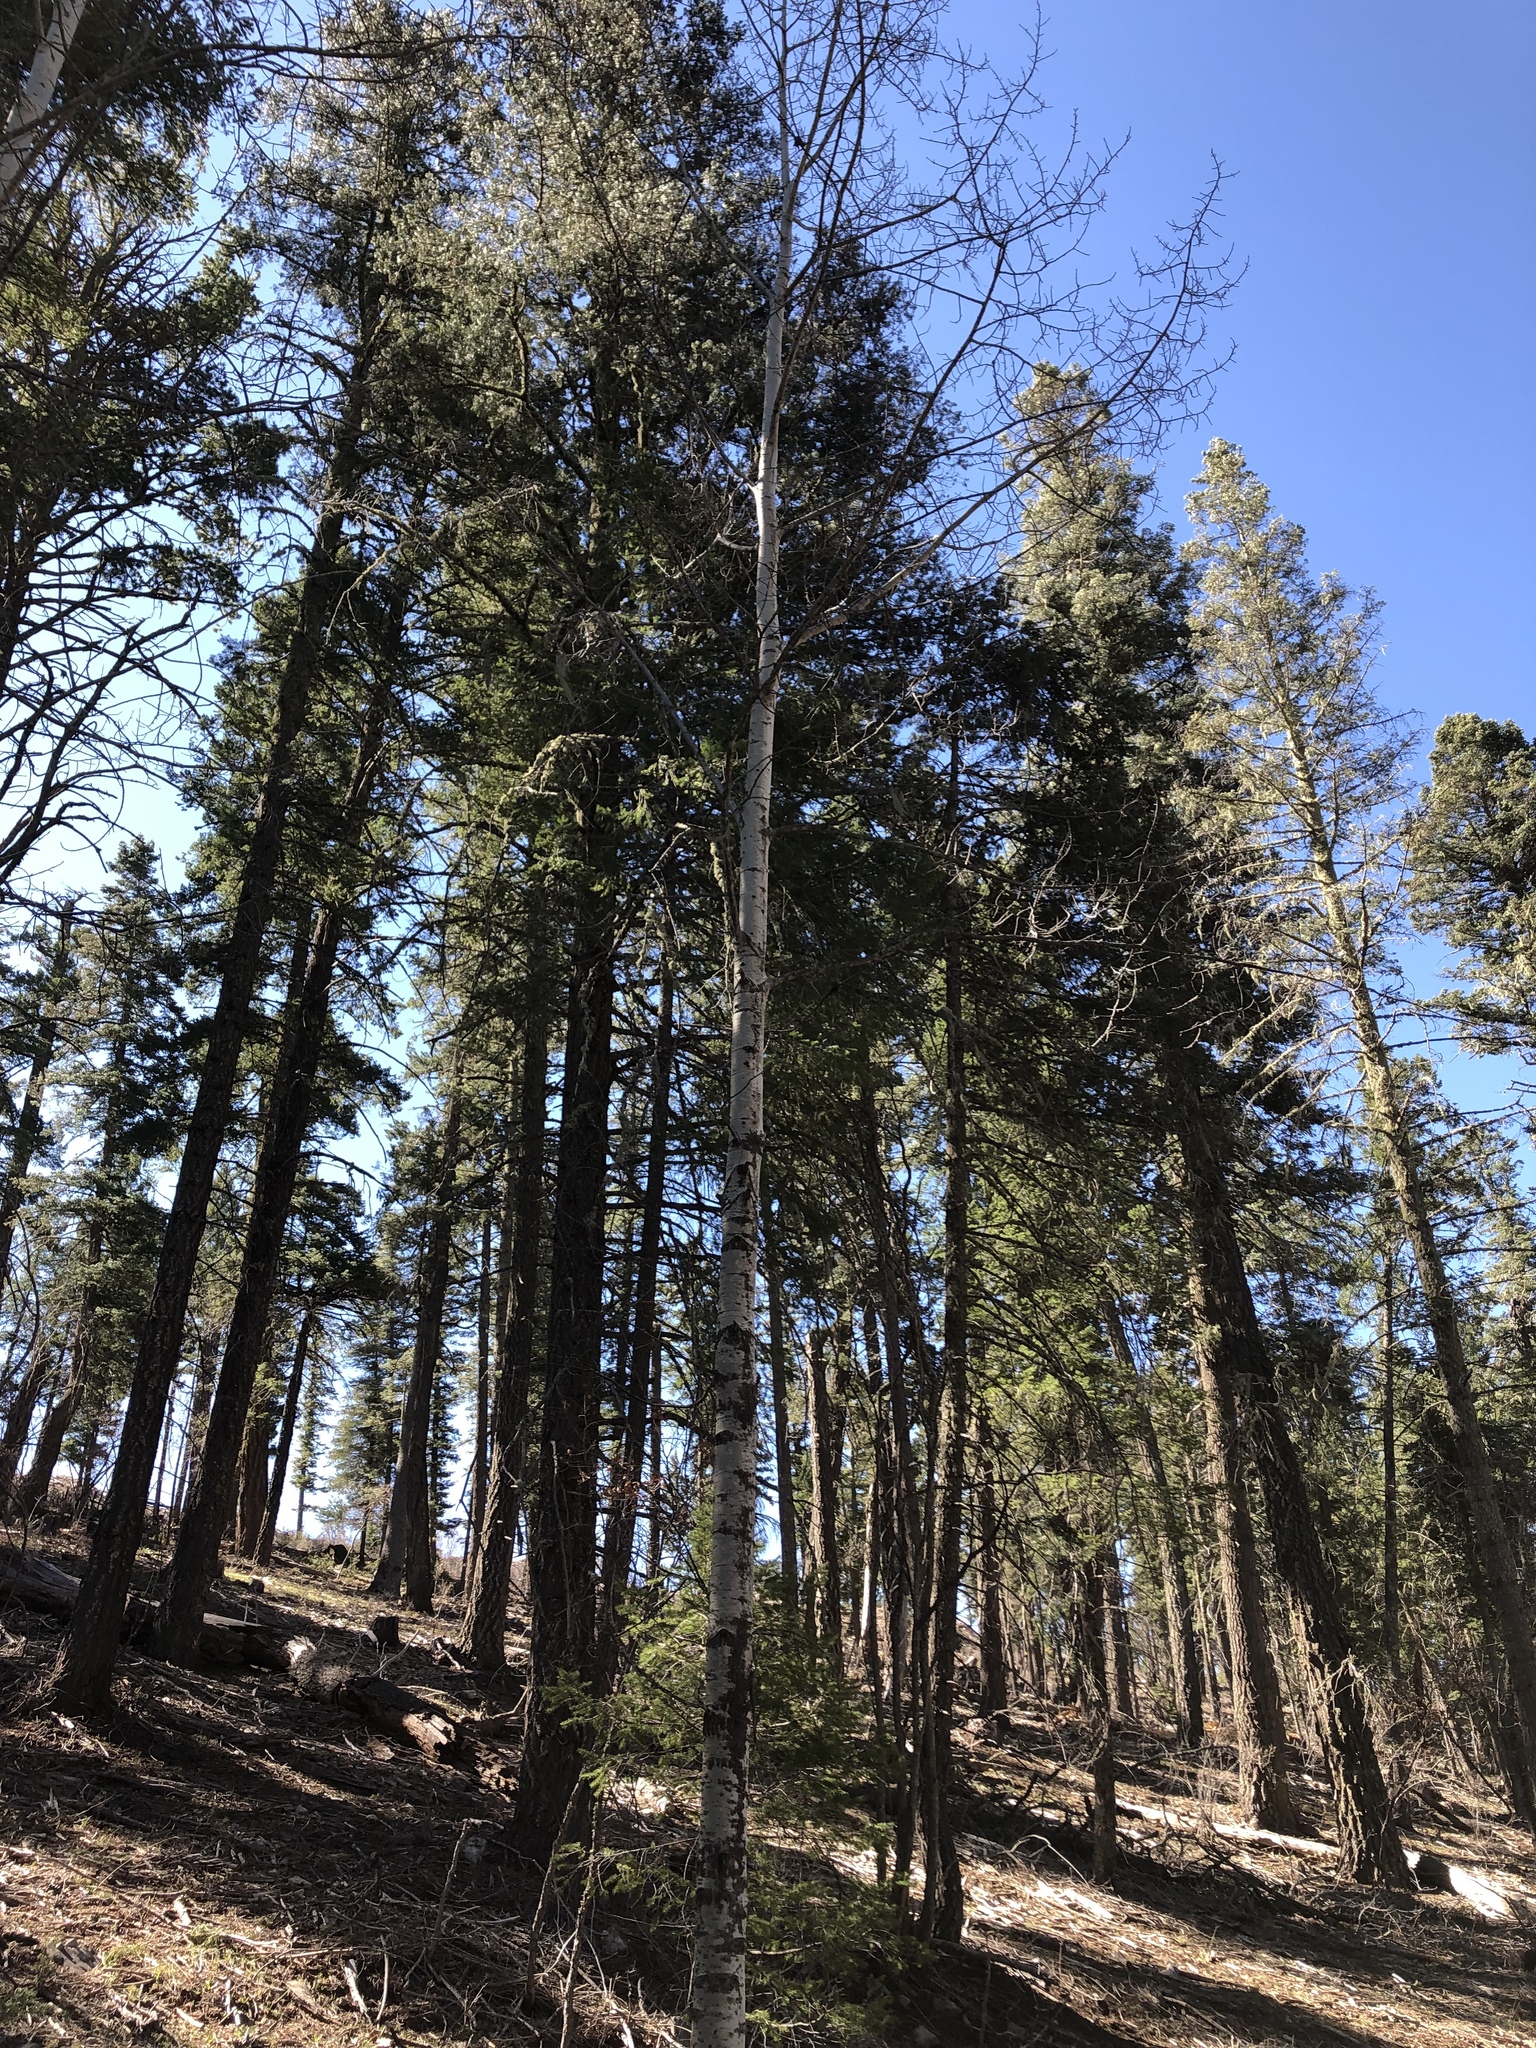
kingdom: Plantae
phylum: Tracheophyta
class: Magnoliopsida
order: Malpighiales
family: Salicaceae
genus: Populus
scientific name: Populus tremuloides
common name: Quaking aspen
